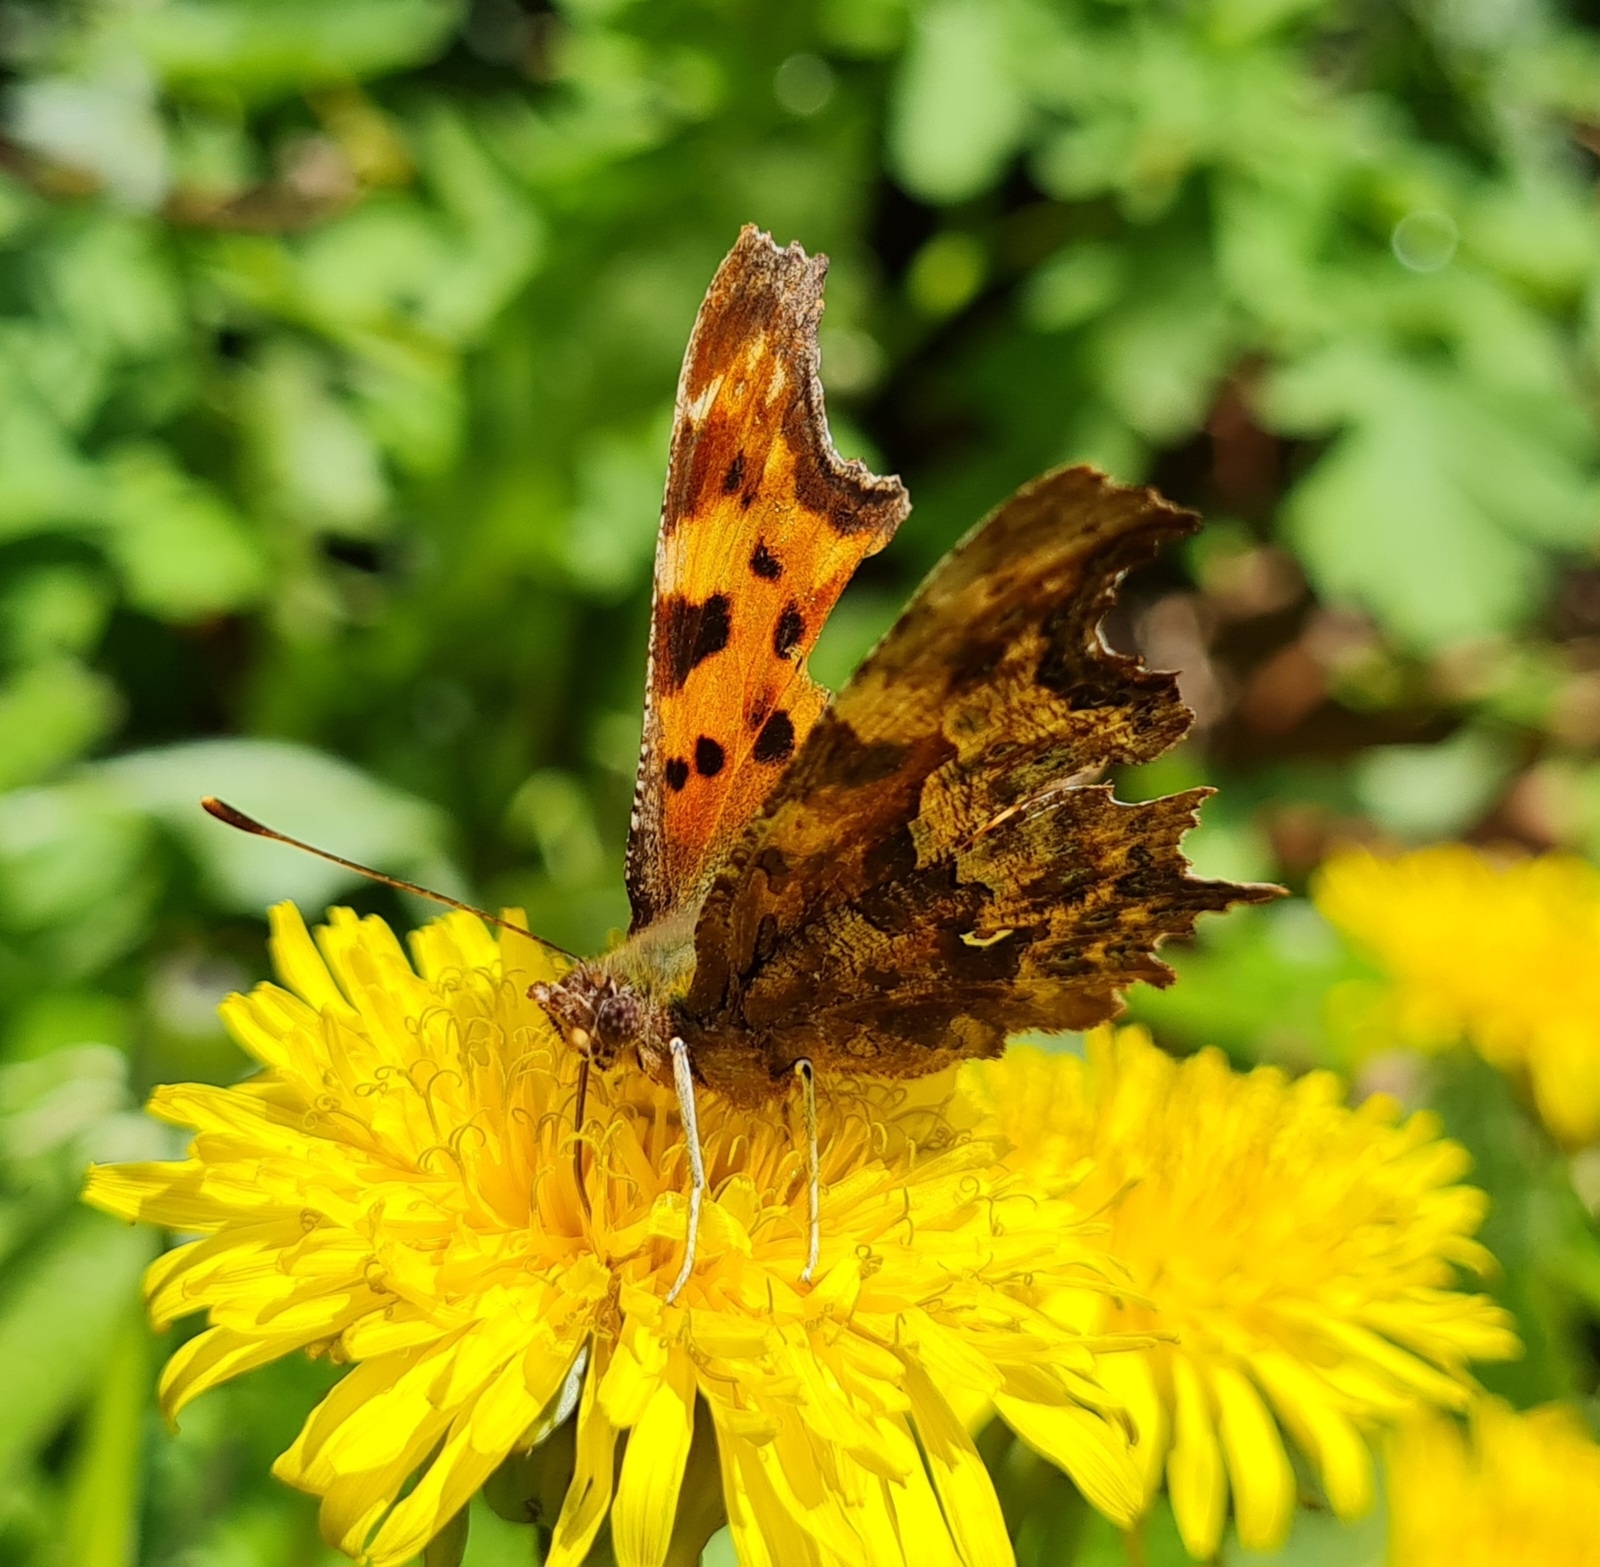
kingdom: Animalia
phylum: Arthropoda
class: Insecta
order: Lepidoptera
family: Nymphalidae
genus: Polygonia
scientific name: Polygonia c-album
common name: Comma
